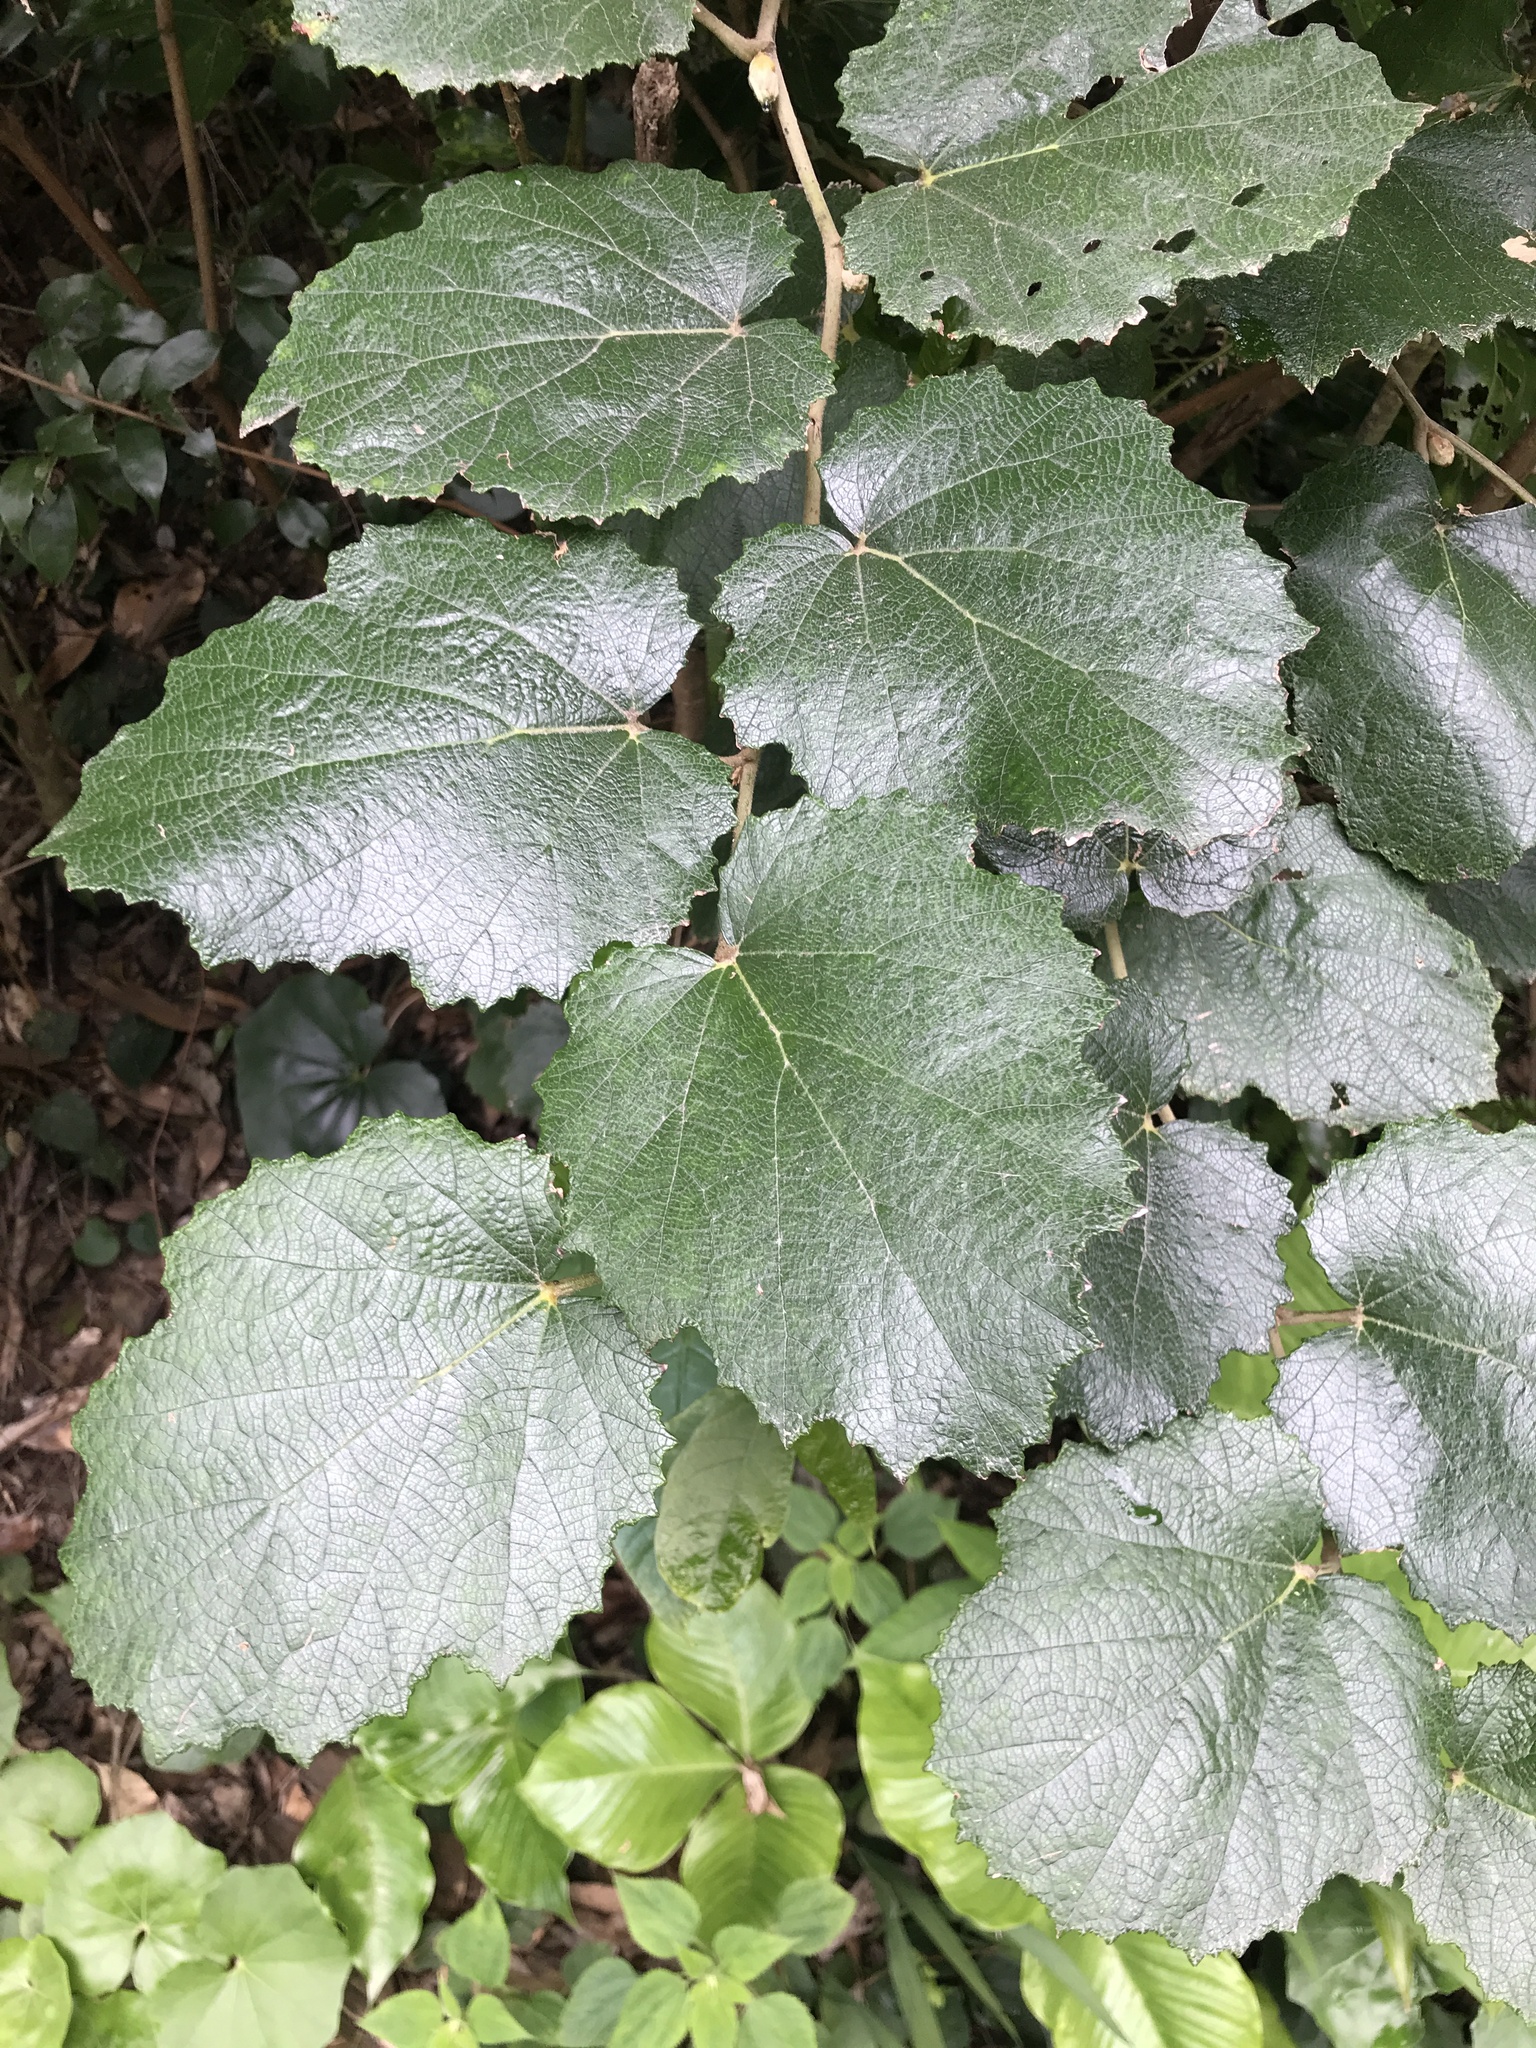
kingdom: Plantae
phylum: Tracheophyta
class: Magnoliopsida
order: Rosales
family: Rosaceae
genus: Rubus
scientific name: Rubus sieboldii
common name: Molucca raspberry
